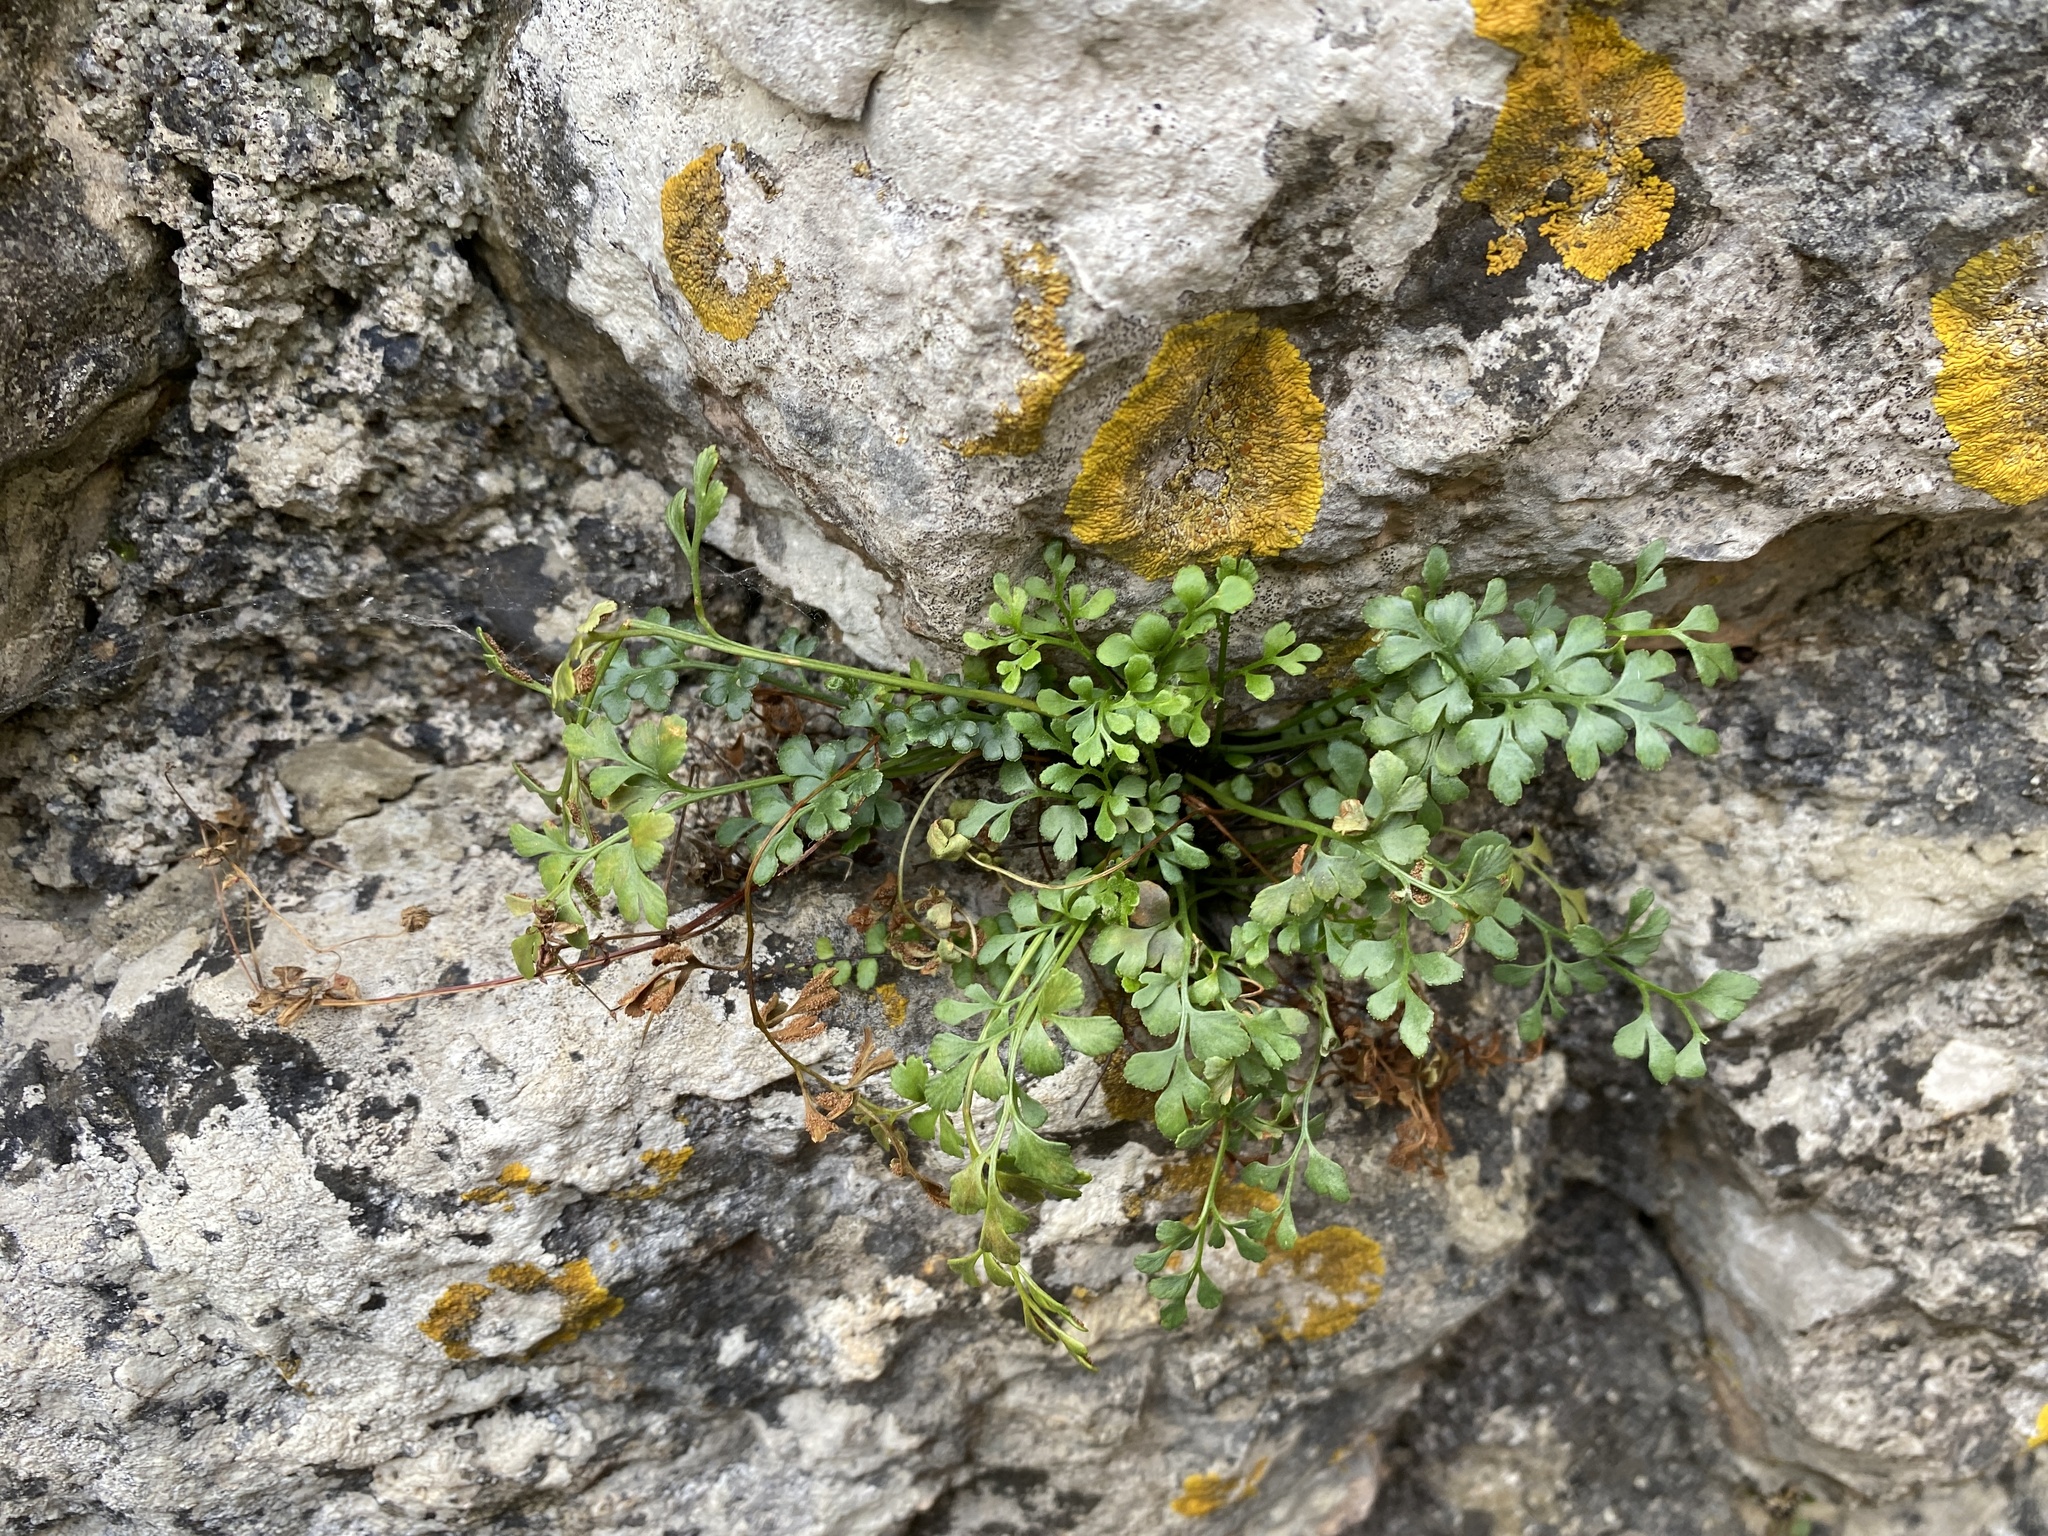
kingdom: Plantae
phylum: Tracheophyta
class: Polypodiopsida
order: Polypodiales
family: Aspleniaceae
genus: Asplenium
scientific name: Asplenium ruta-muraria
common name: Wall-rue
